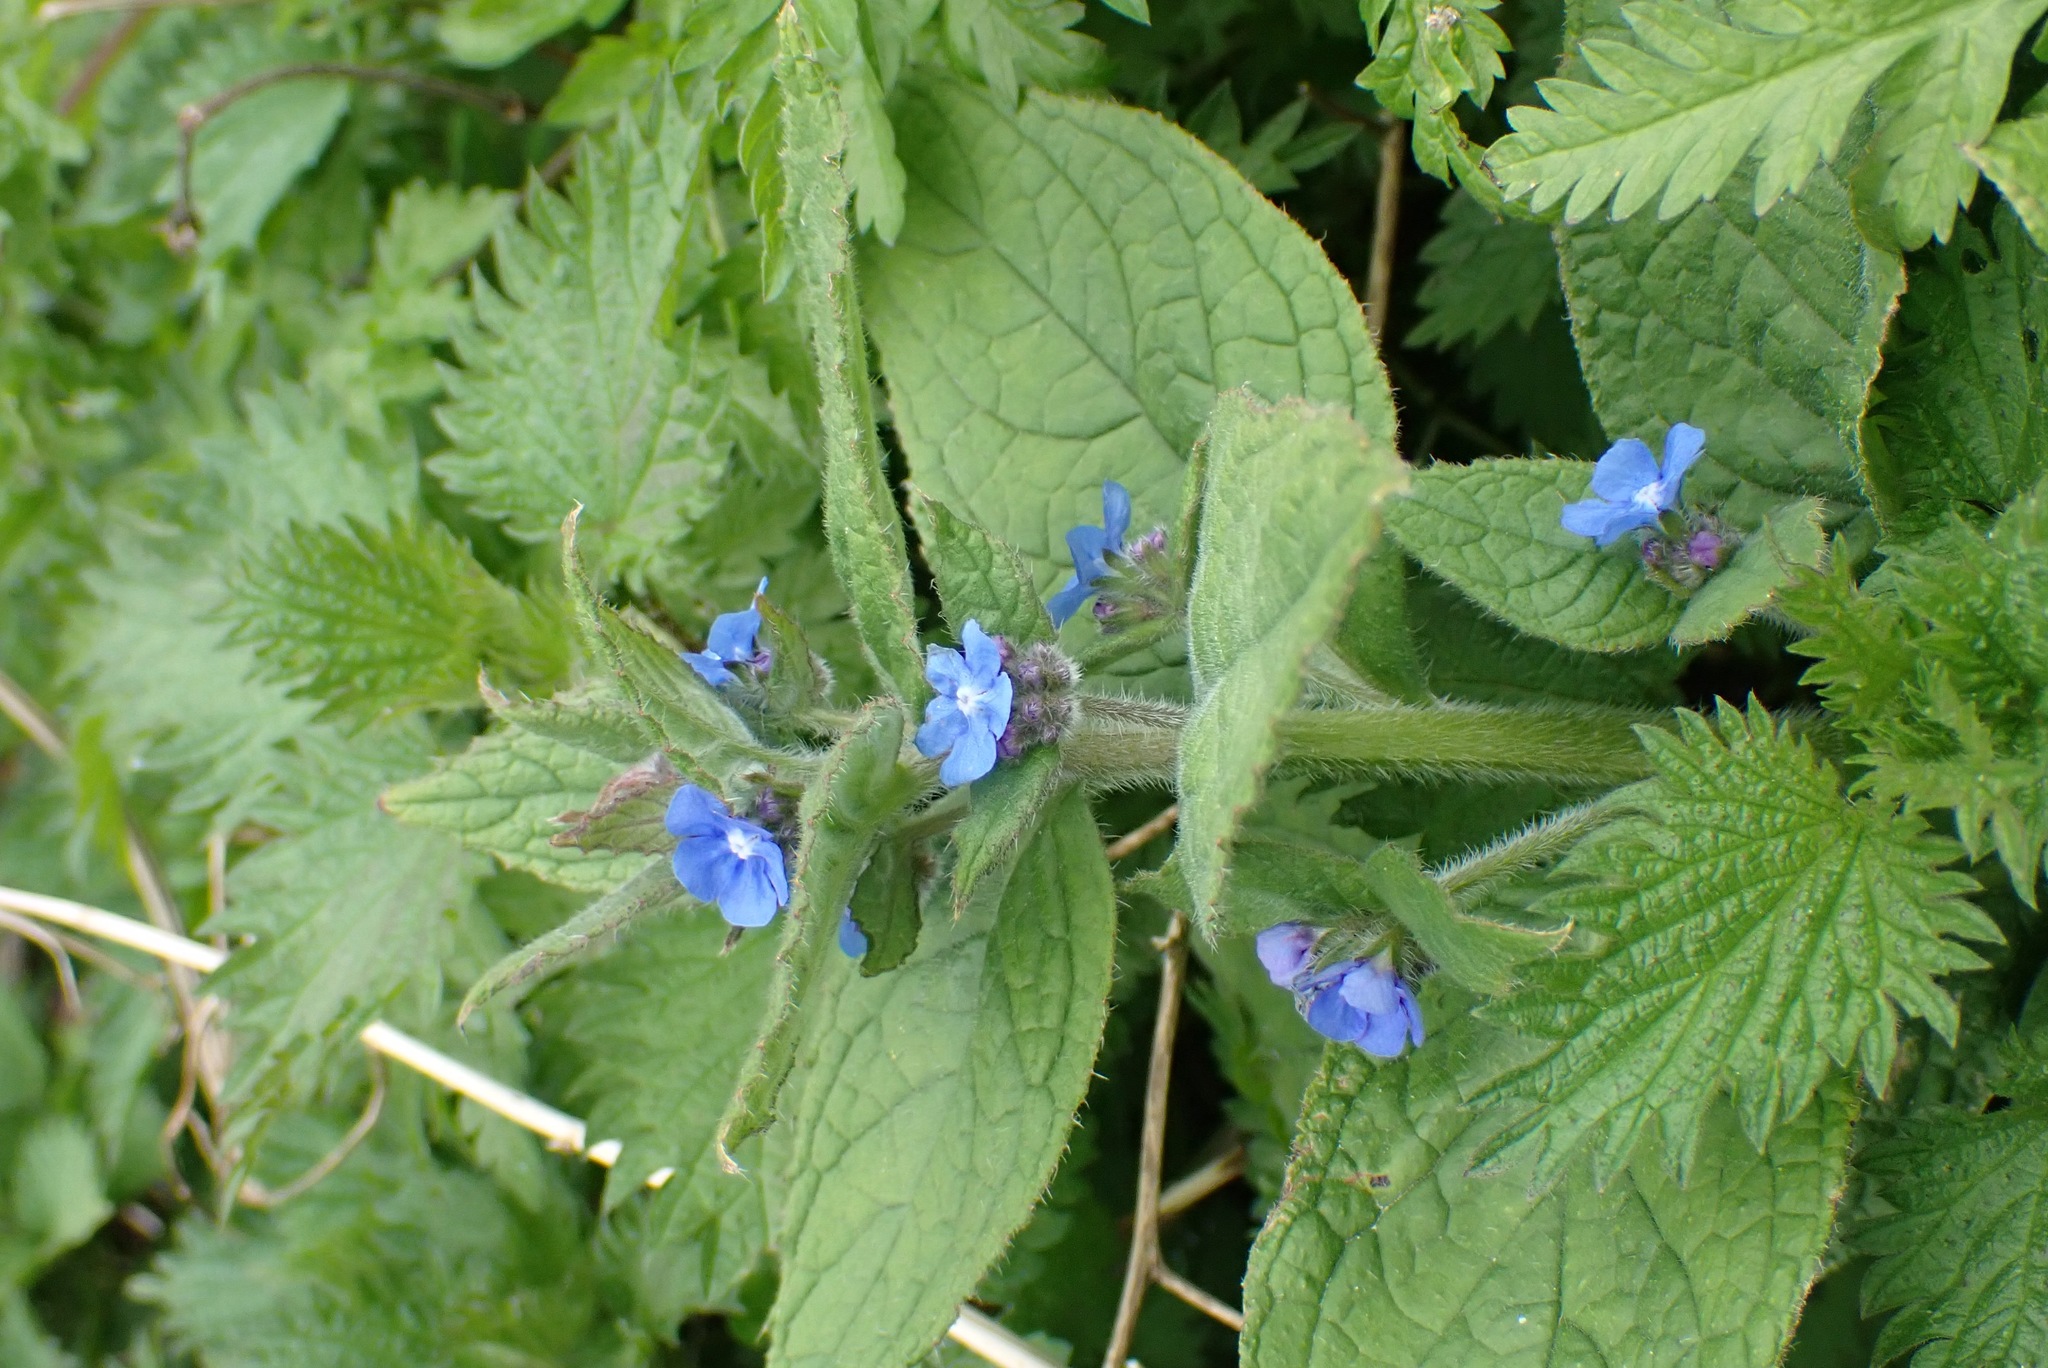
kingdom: Plantae
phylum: Tracheophyta
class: Magnoliopsida
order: Boraginales
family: Boraginaceae
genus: Pentaglottis
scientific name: Pentaglottis sempervirens
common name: Green alkanet
